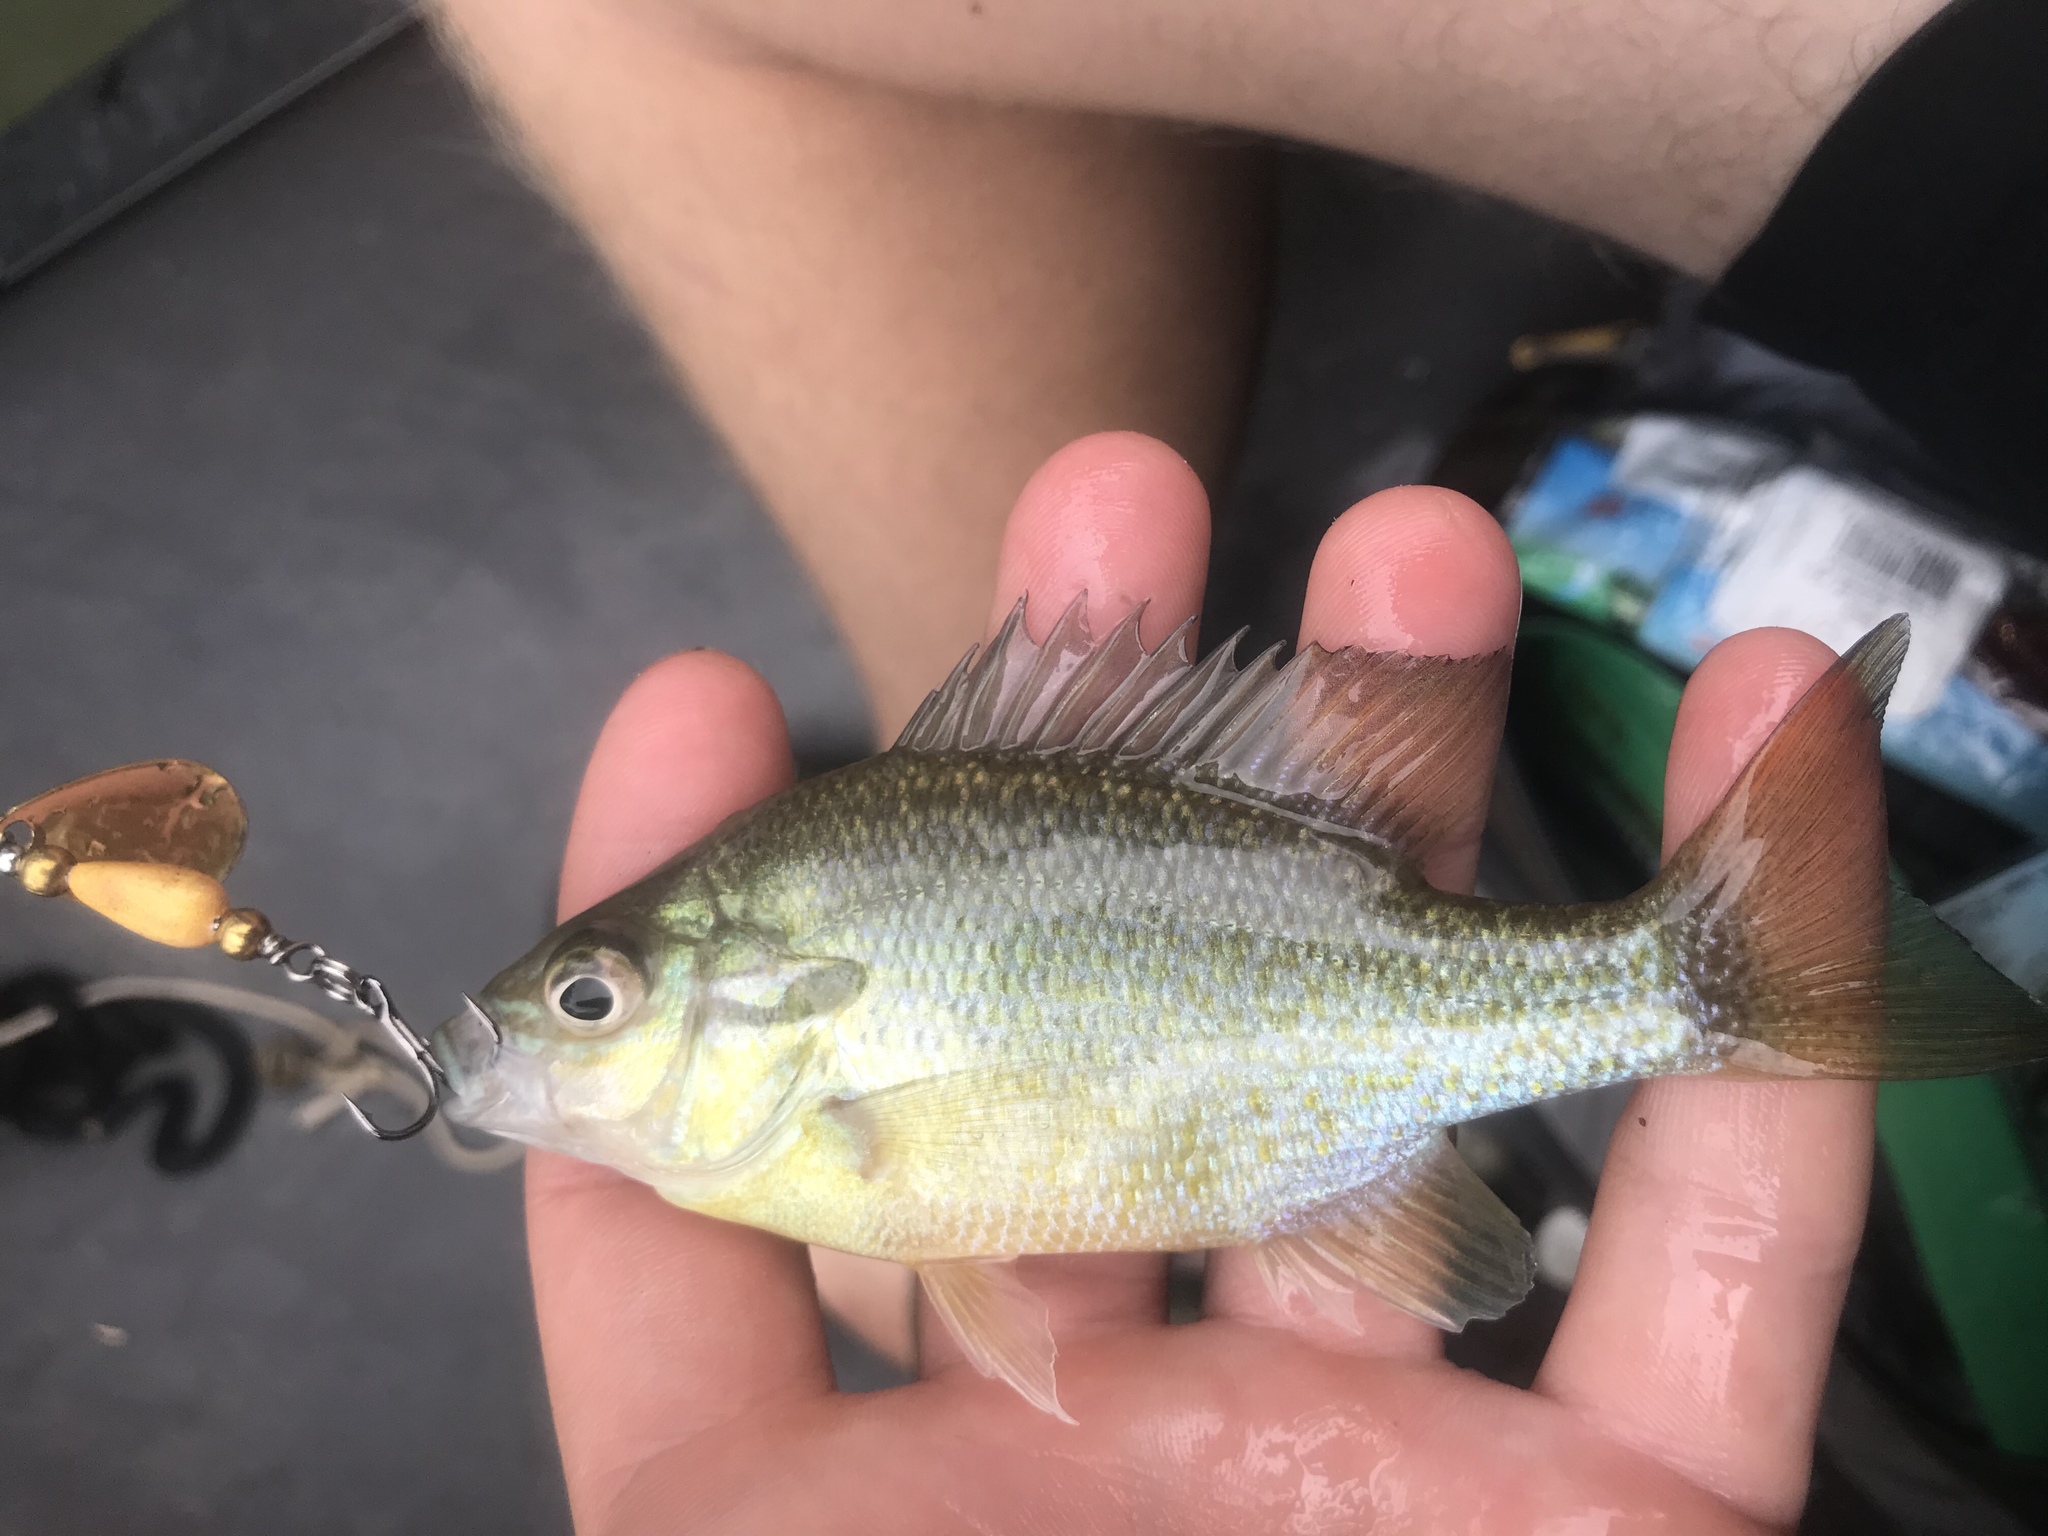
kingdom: Animalia
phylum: Chordata
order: Perciformes
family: Centrarchidae
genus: Lepomis
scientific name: Lepomis auritus
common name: Redbreast sunfish
